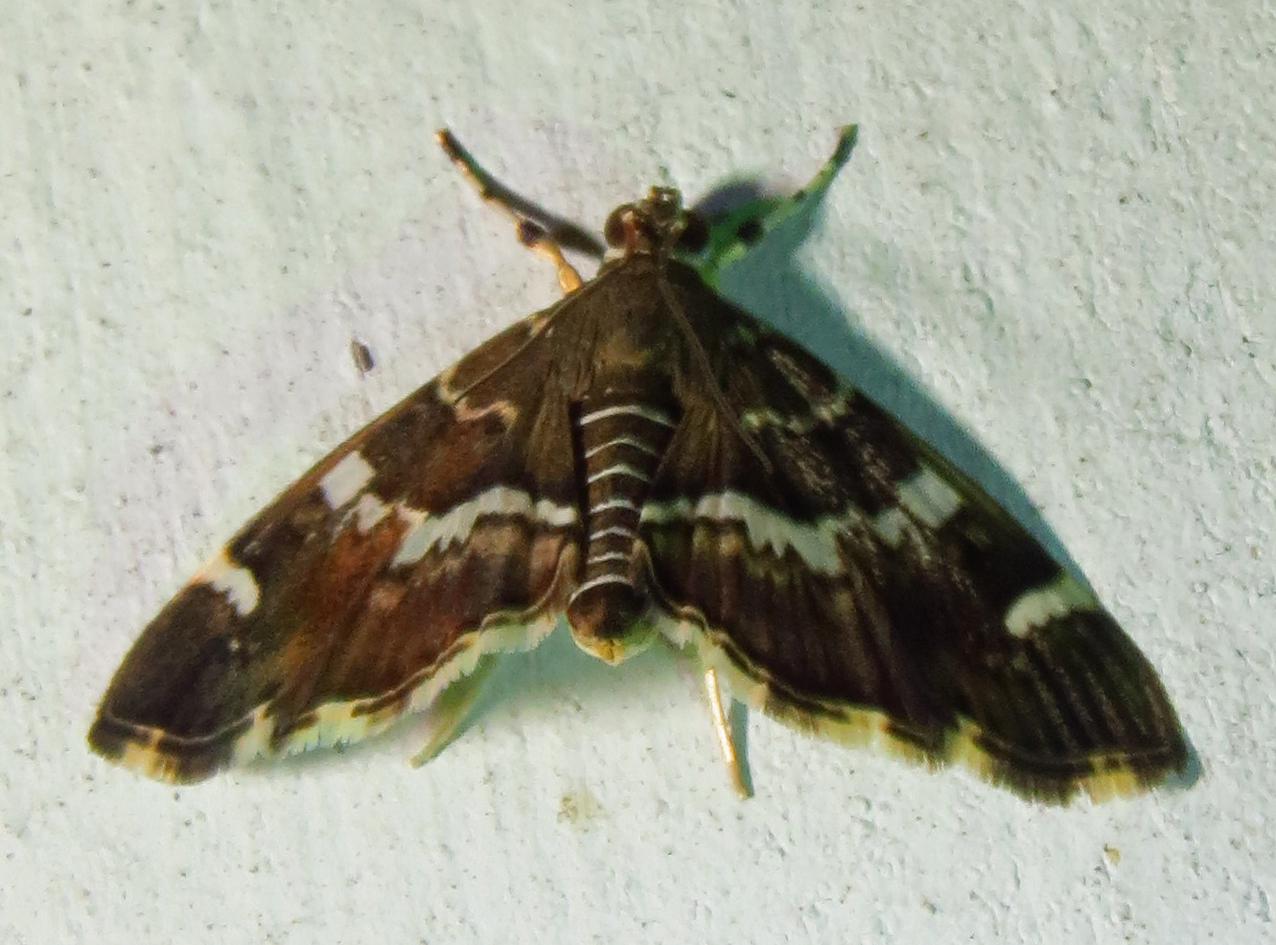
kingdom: Animalia
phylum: Arthropoda
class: Insecta
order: Lepidoptera
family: Crambidae
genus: Hymenia
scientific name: Hymenia perspectalis
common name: Spotted beet webworm
